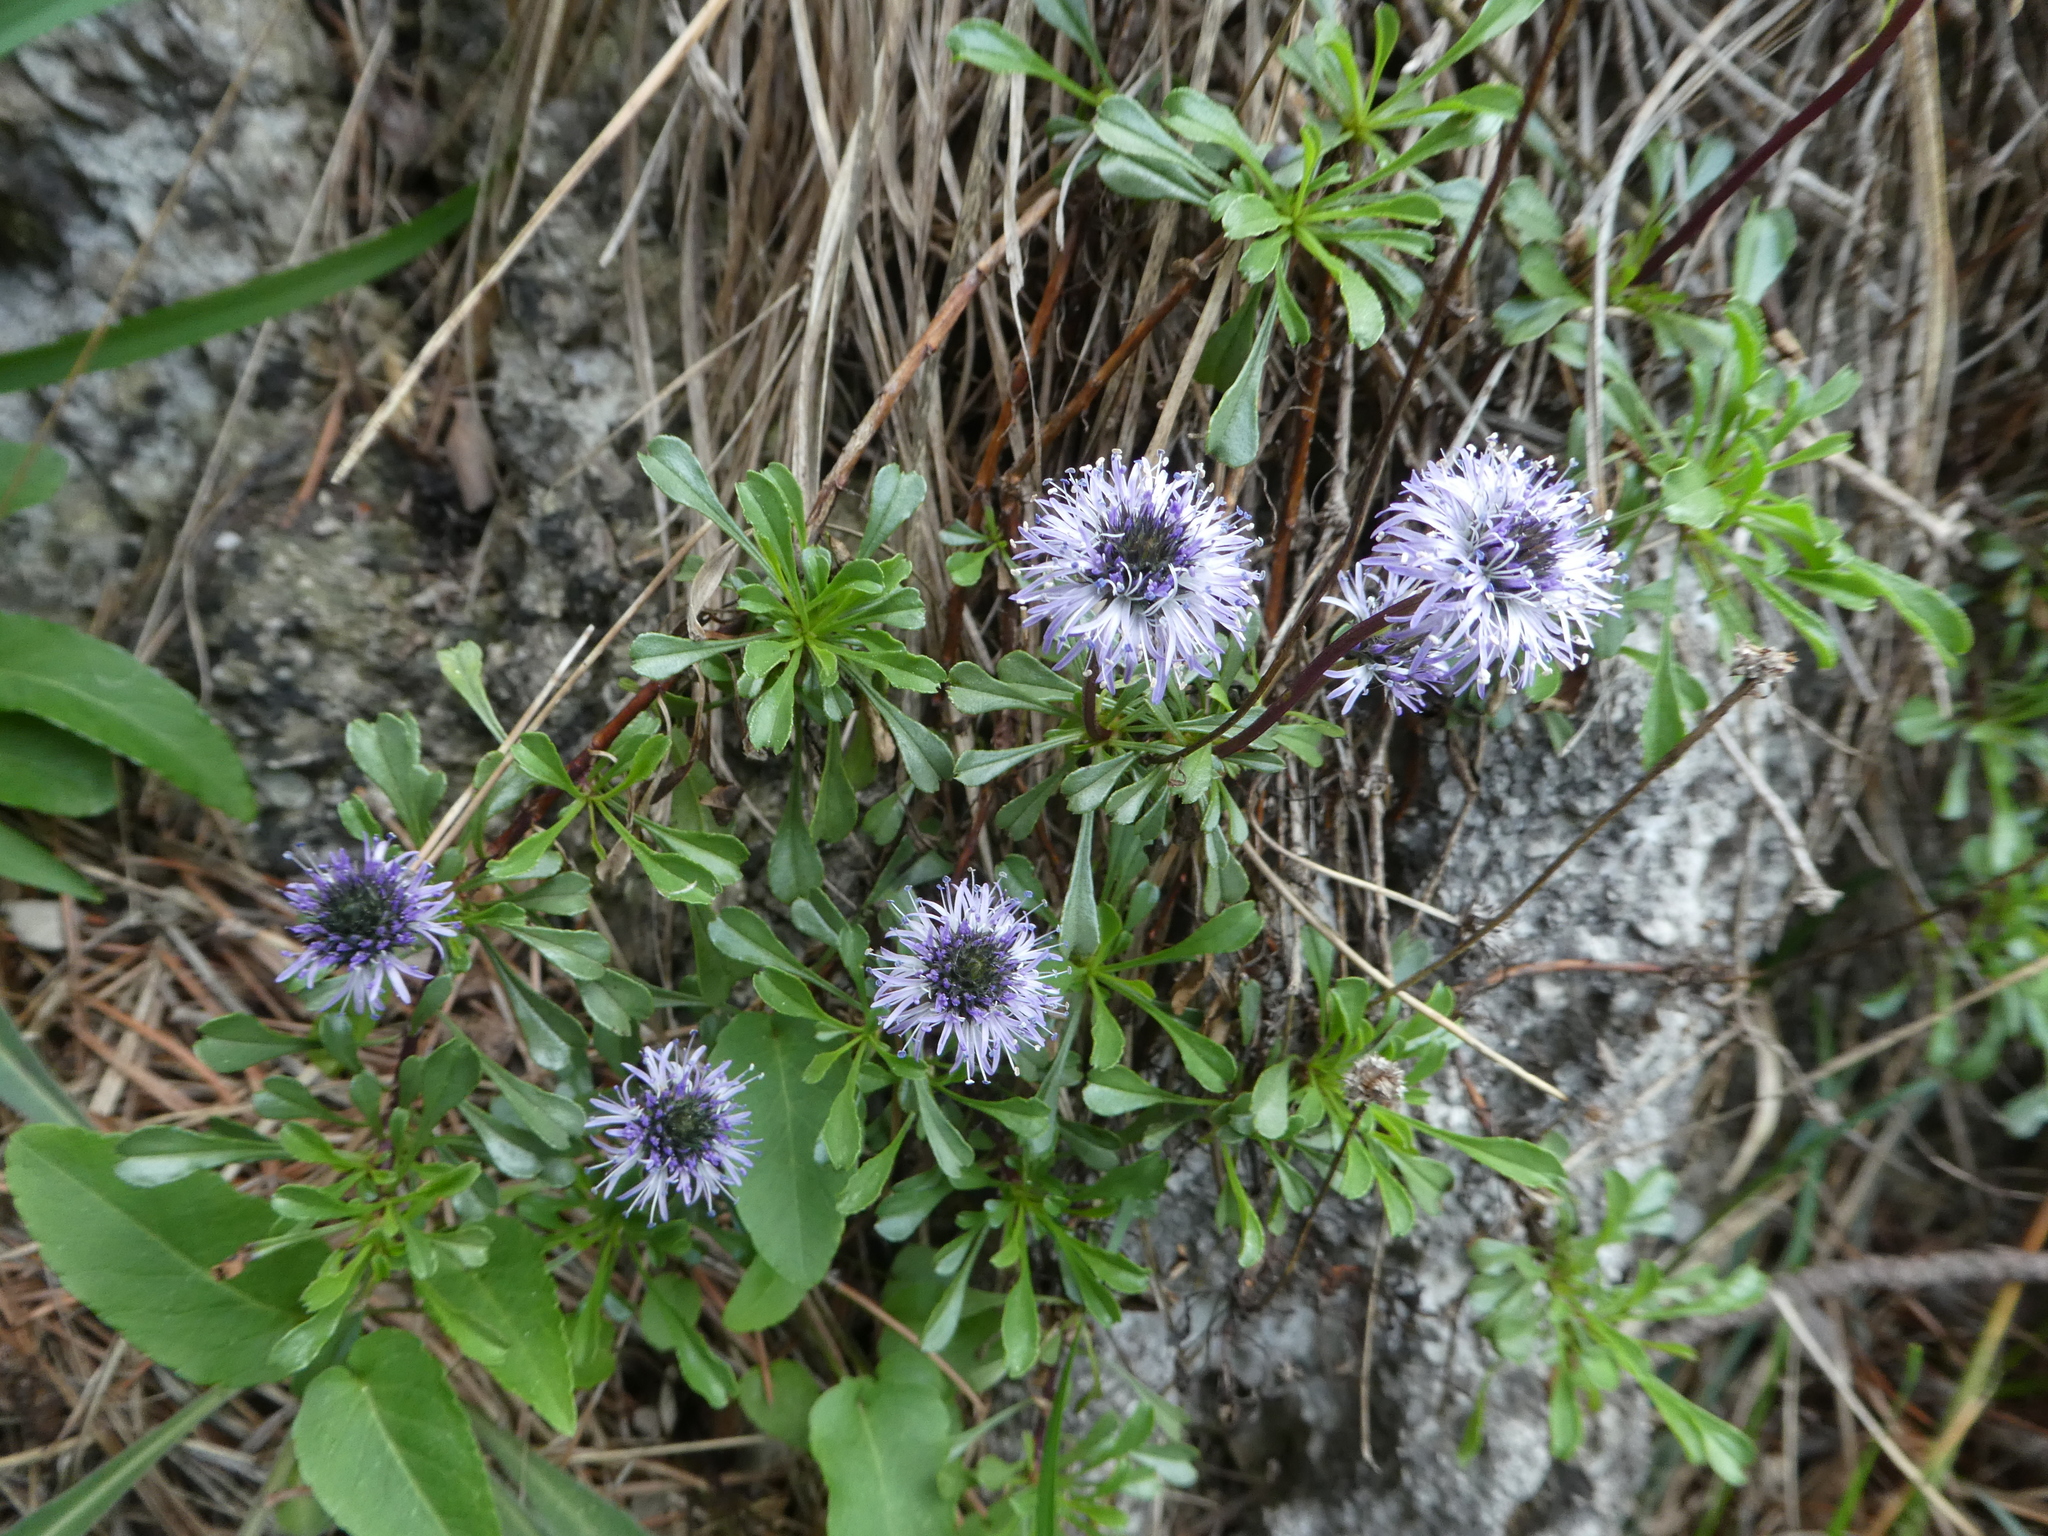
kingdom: Plantae
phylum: Tracheophyta
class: Magnoliopsida
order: Lamiales
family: Plantaginaceae
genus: Globularia
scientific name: Globularia cordifolia
